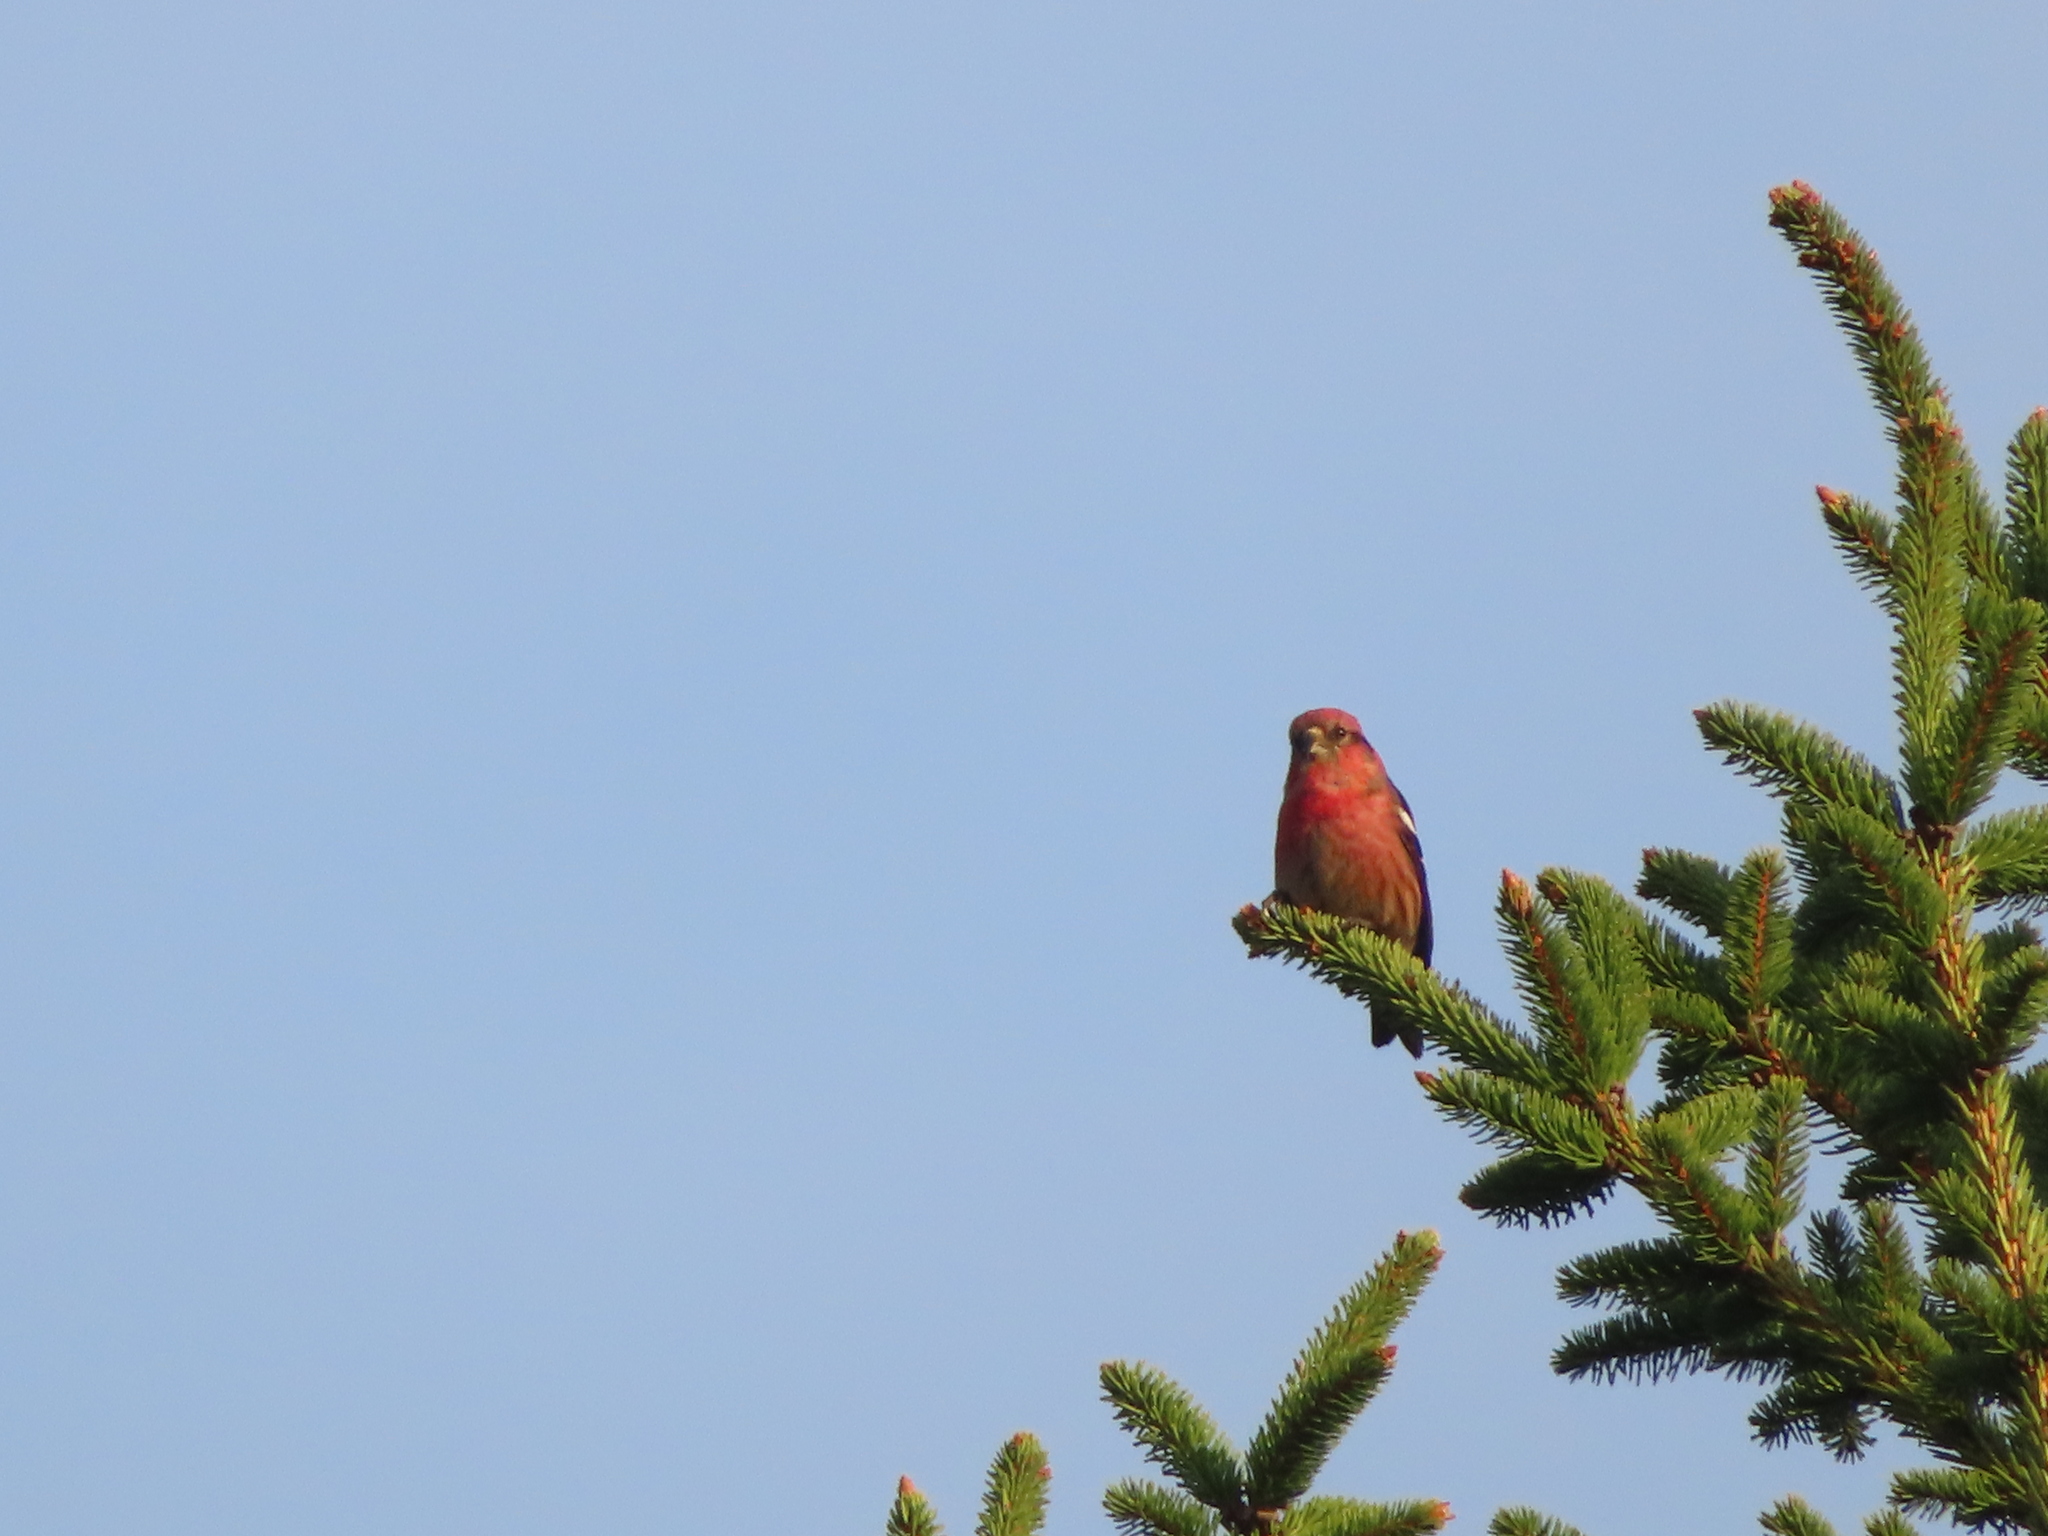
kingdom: Animalia
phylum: Chordata
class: Aves
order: Passeriformes
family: Fringillidae
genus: Loxia
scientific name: Loxia leucoptera
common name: Two-barred crossbill
